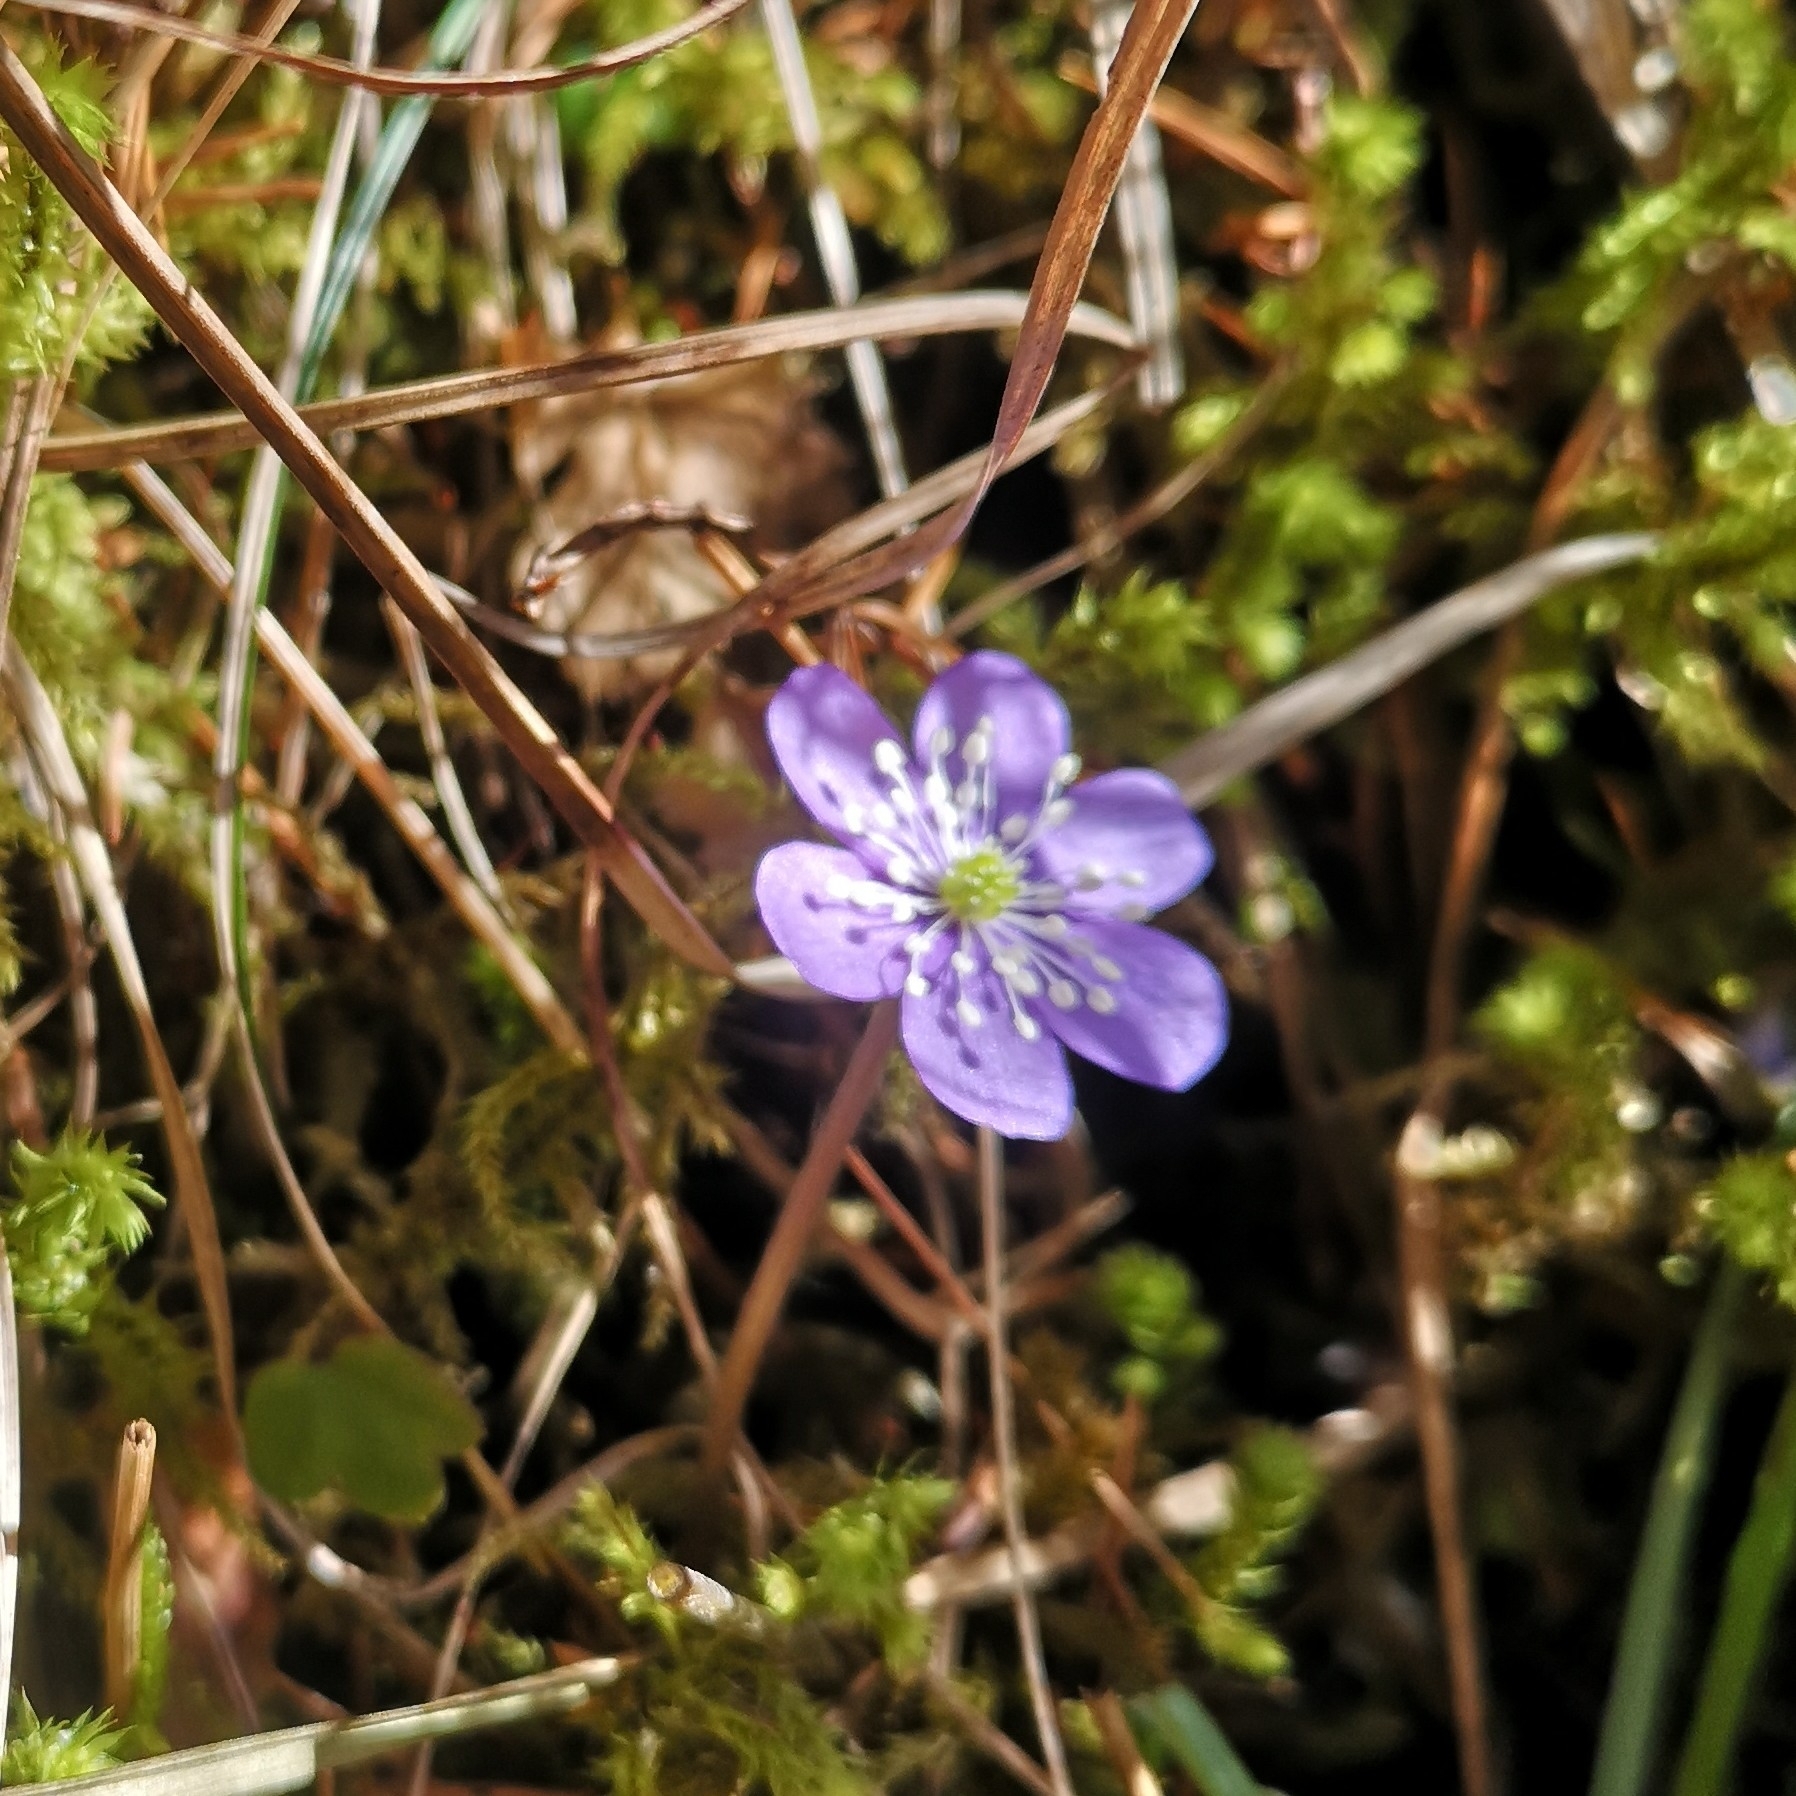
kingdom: Plantae
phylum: Tracheophyta
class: Magnoliopsida
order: Ranunculales
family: Ranunculaceae
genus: Hepatica
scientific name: Hepatica nobilis
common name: Liverleaf
